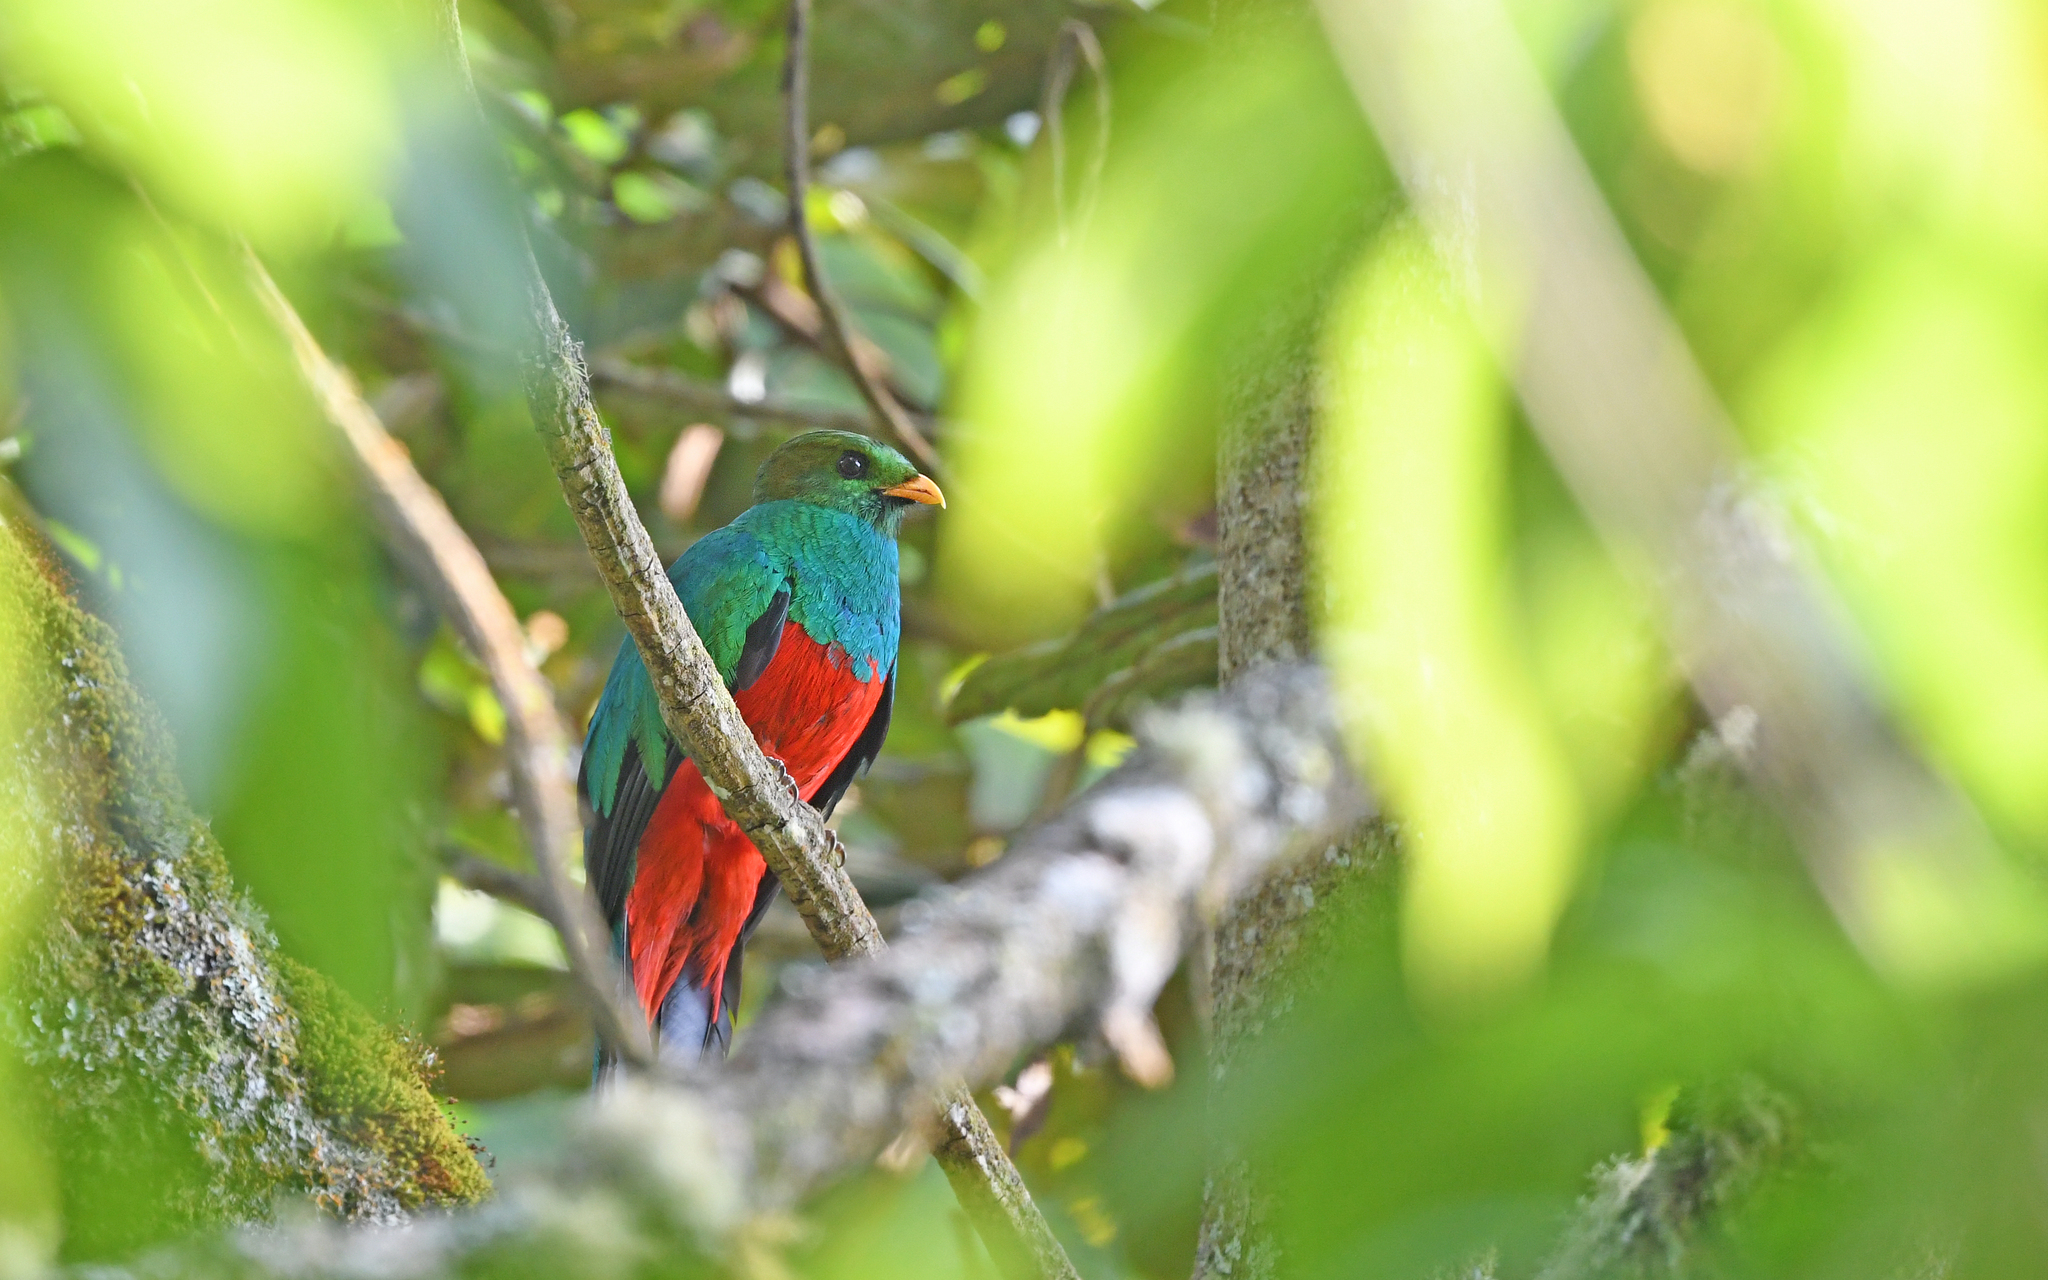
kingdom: Animalia
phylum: Chordata
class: Aves
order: Trogoniformes
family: Trogonidae
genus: Pharomachrus
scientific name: Pharomachrus auriceps
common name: Golden-headed quetzal
